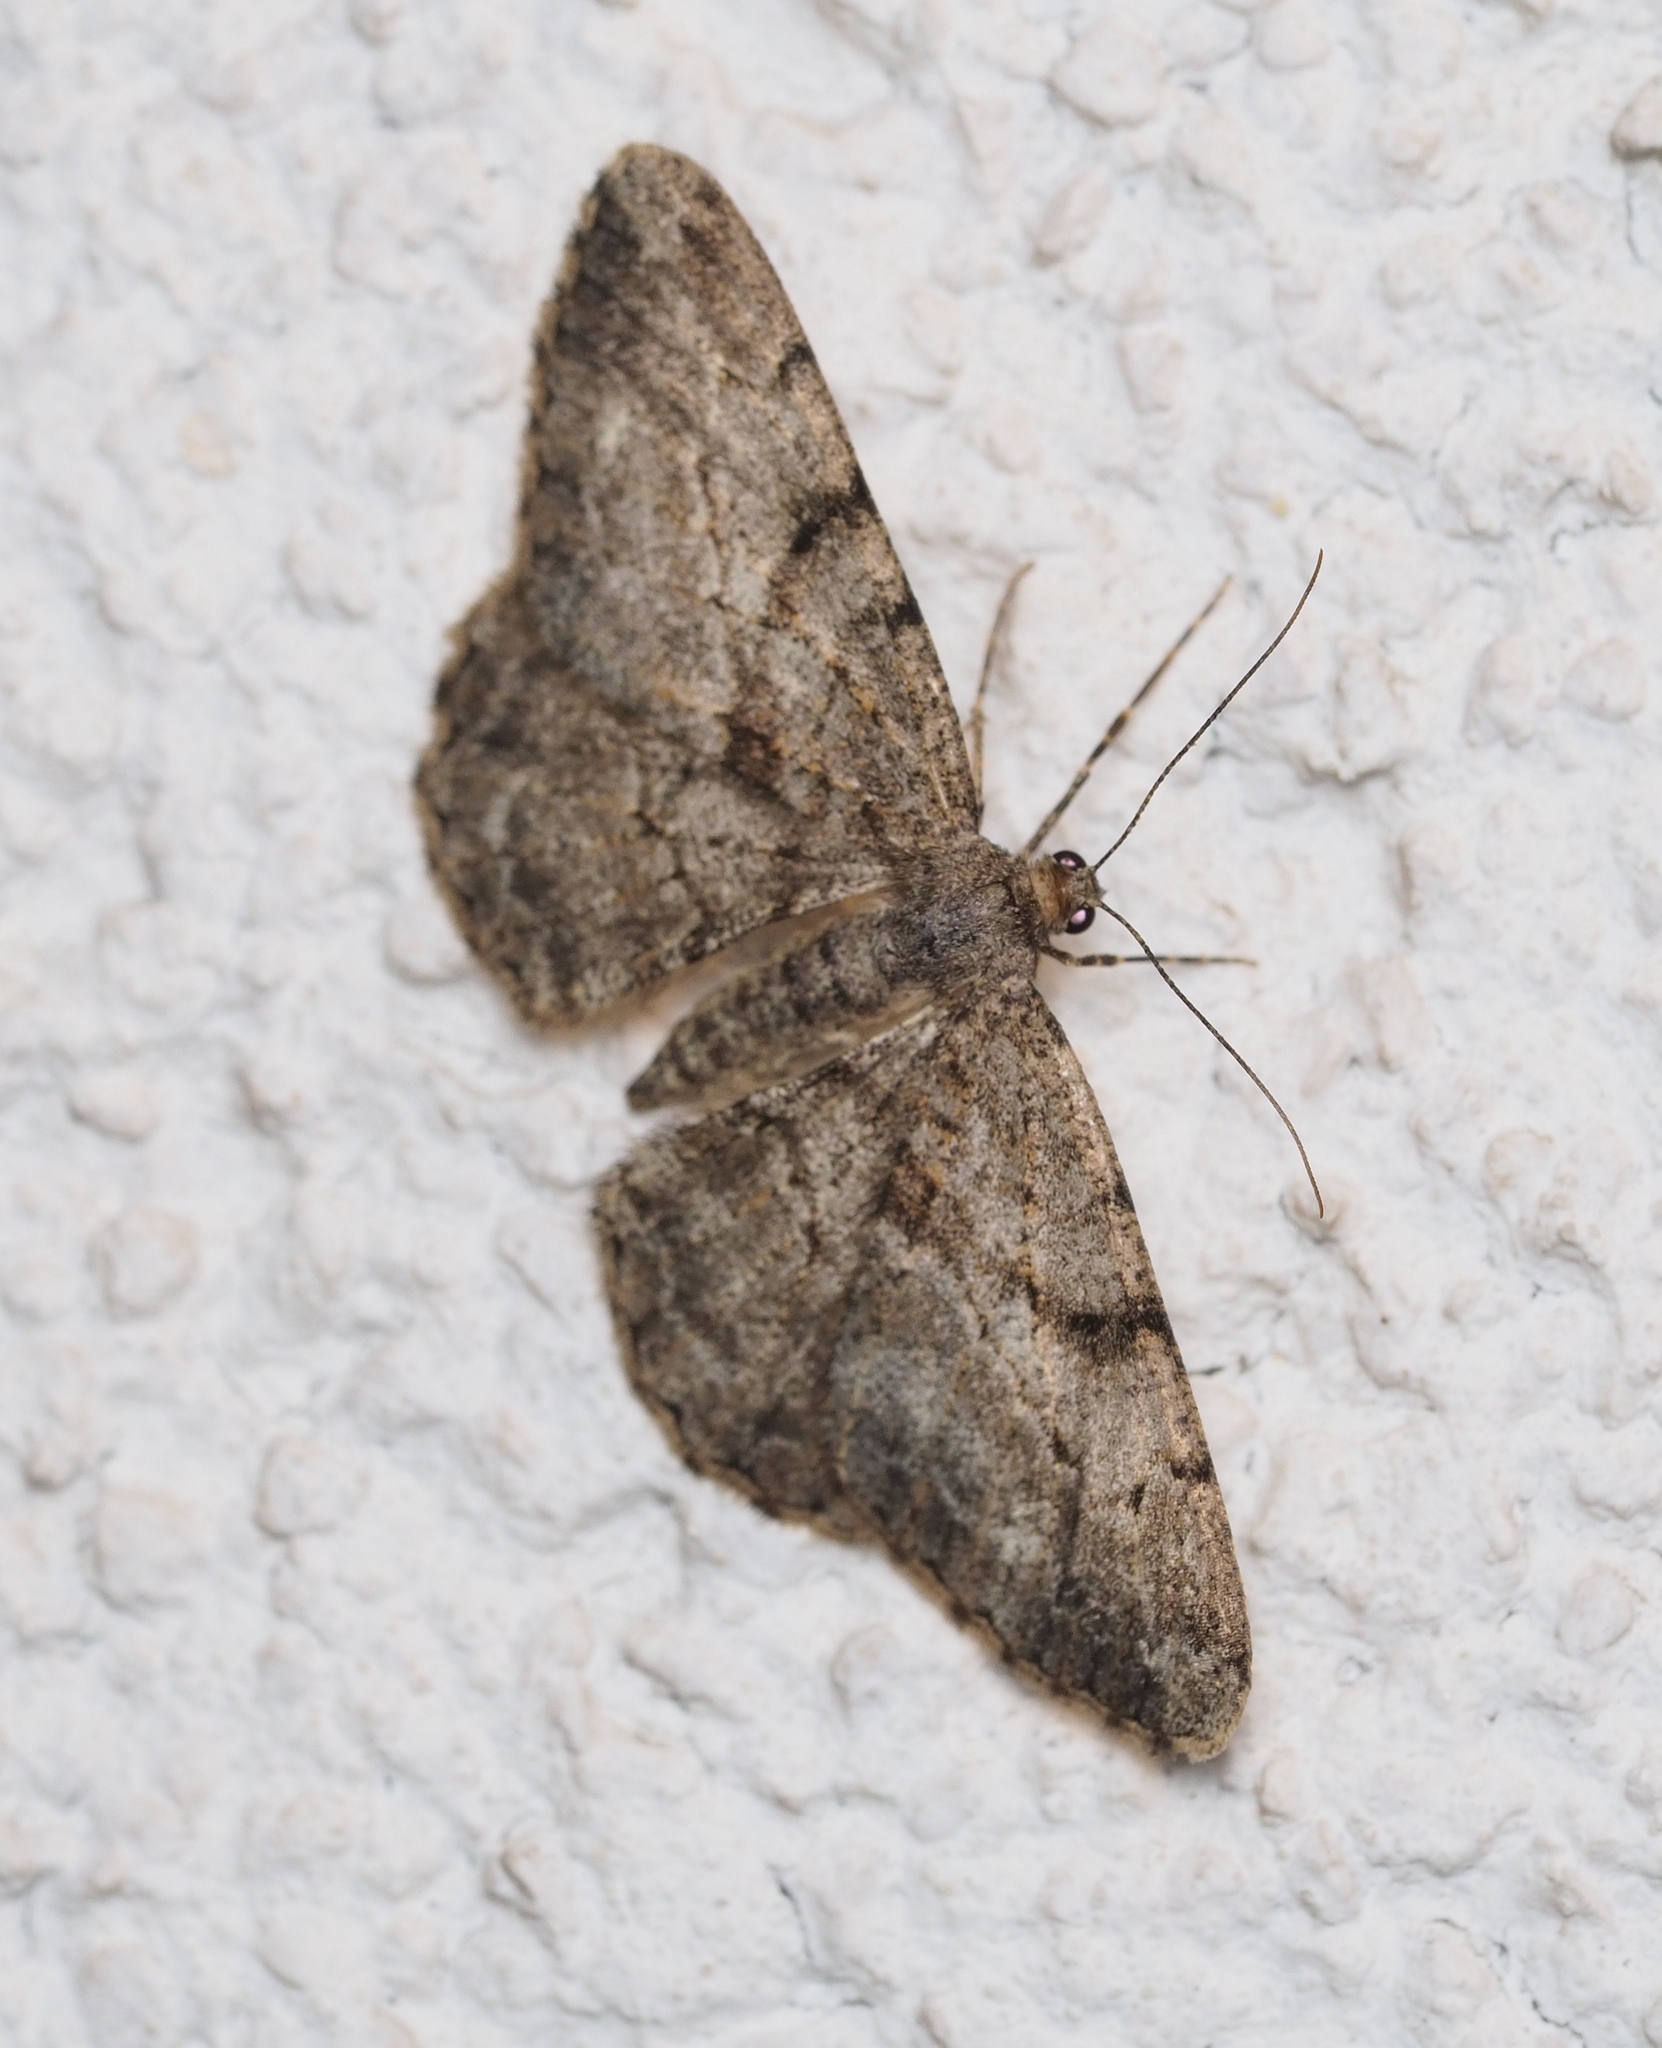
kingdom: Animalia
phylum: Arthropoda
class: Insecta
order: Lepidoptera
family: Geometridae
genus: Peribatodes
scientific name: Peribatodes rhomboidaria
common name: Willow beauty
